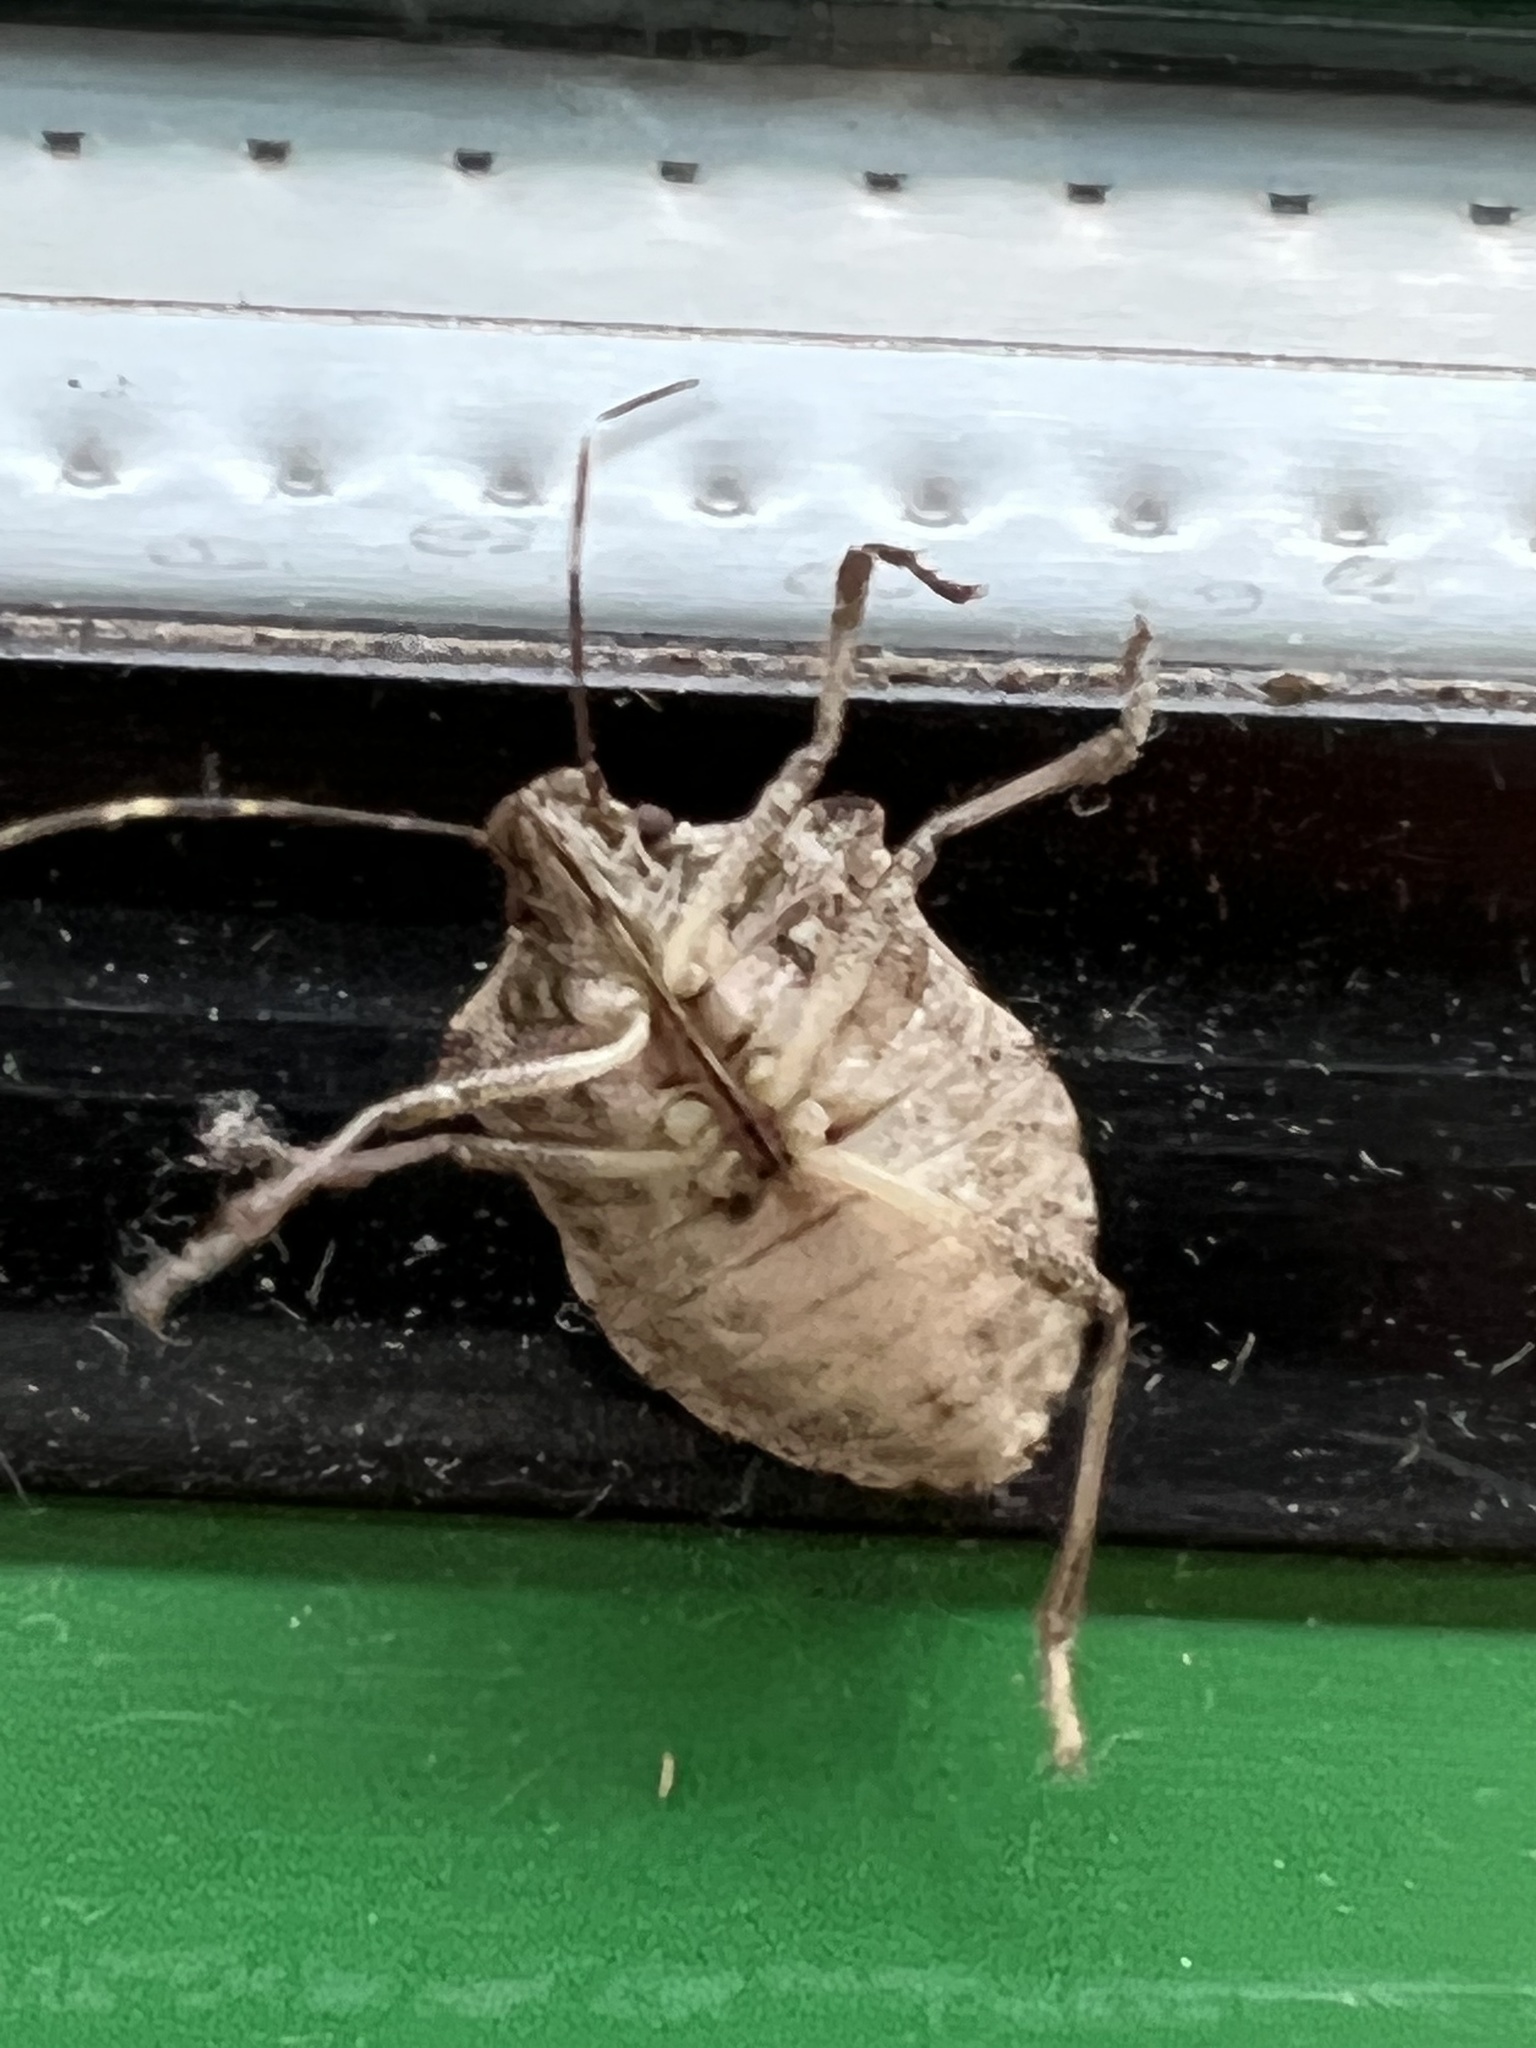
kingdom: Animalia
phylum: Arthropoda
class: Insecta
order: Hemiptera
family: Pentatomidae
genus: Halyomorpha
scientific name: Halyomorpha halys
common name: Brown marmorated stink bug
